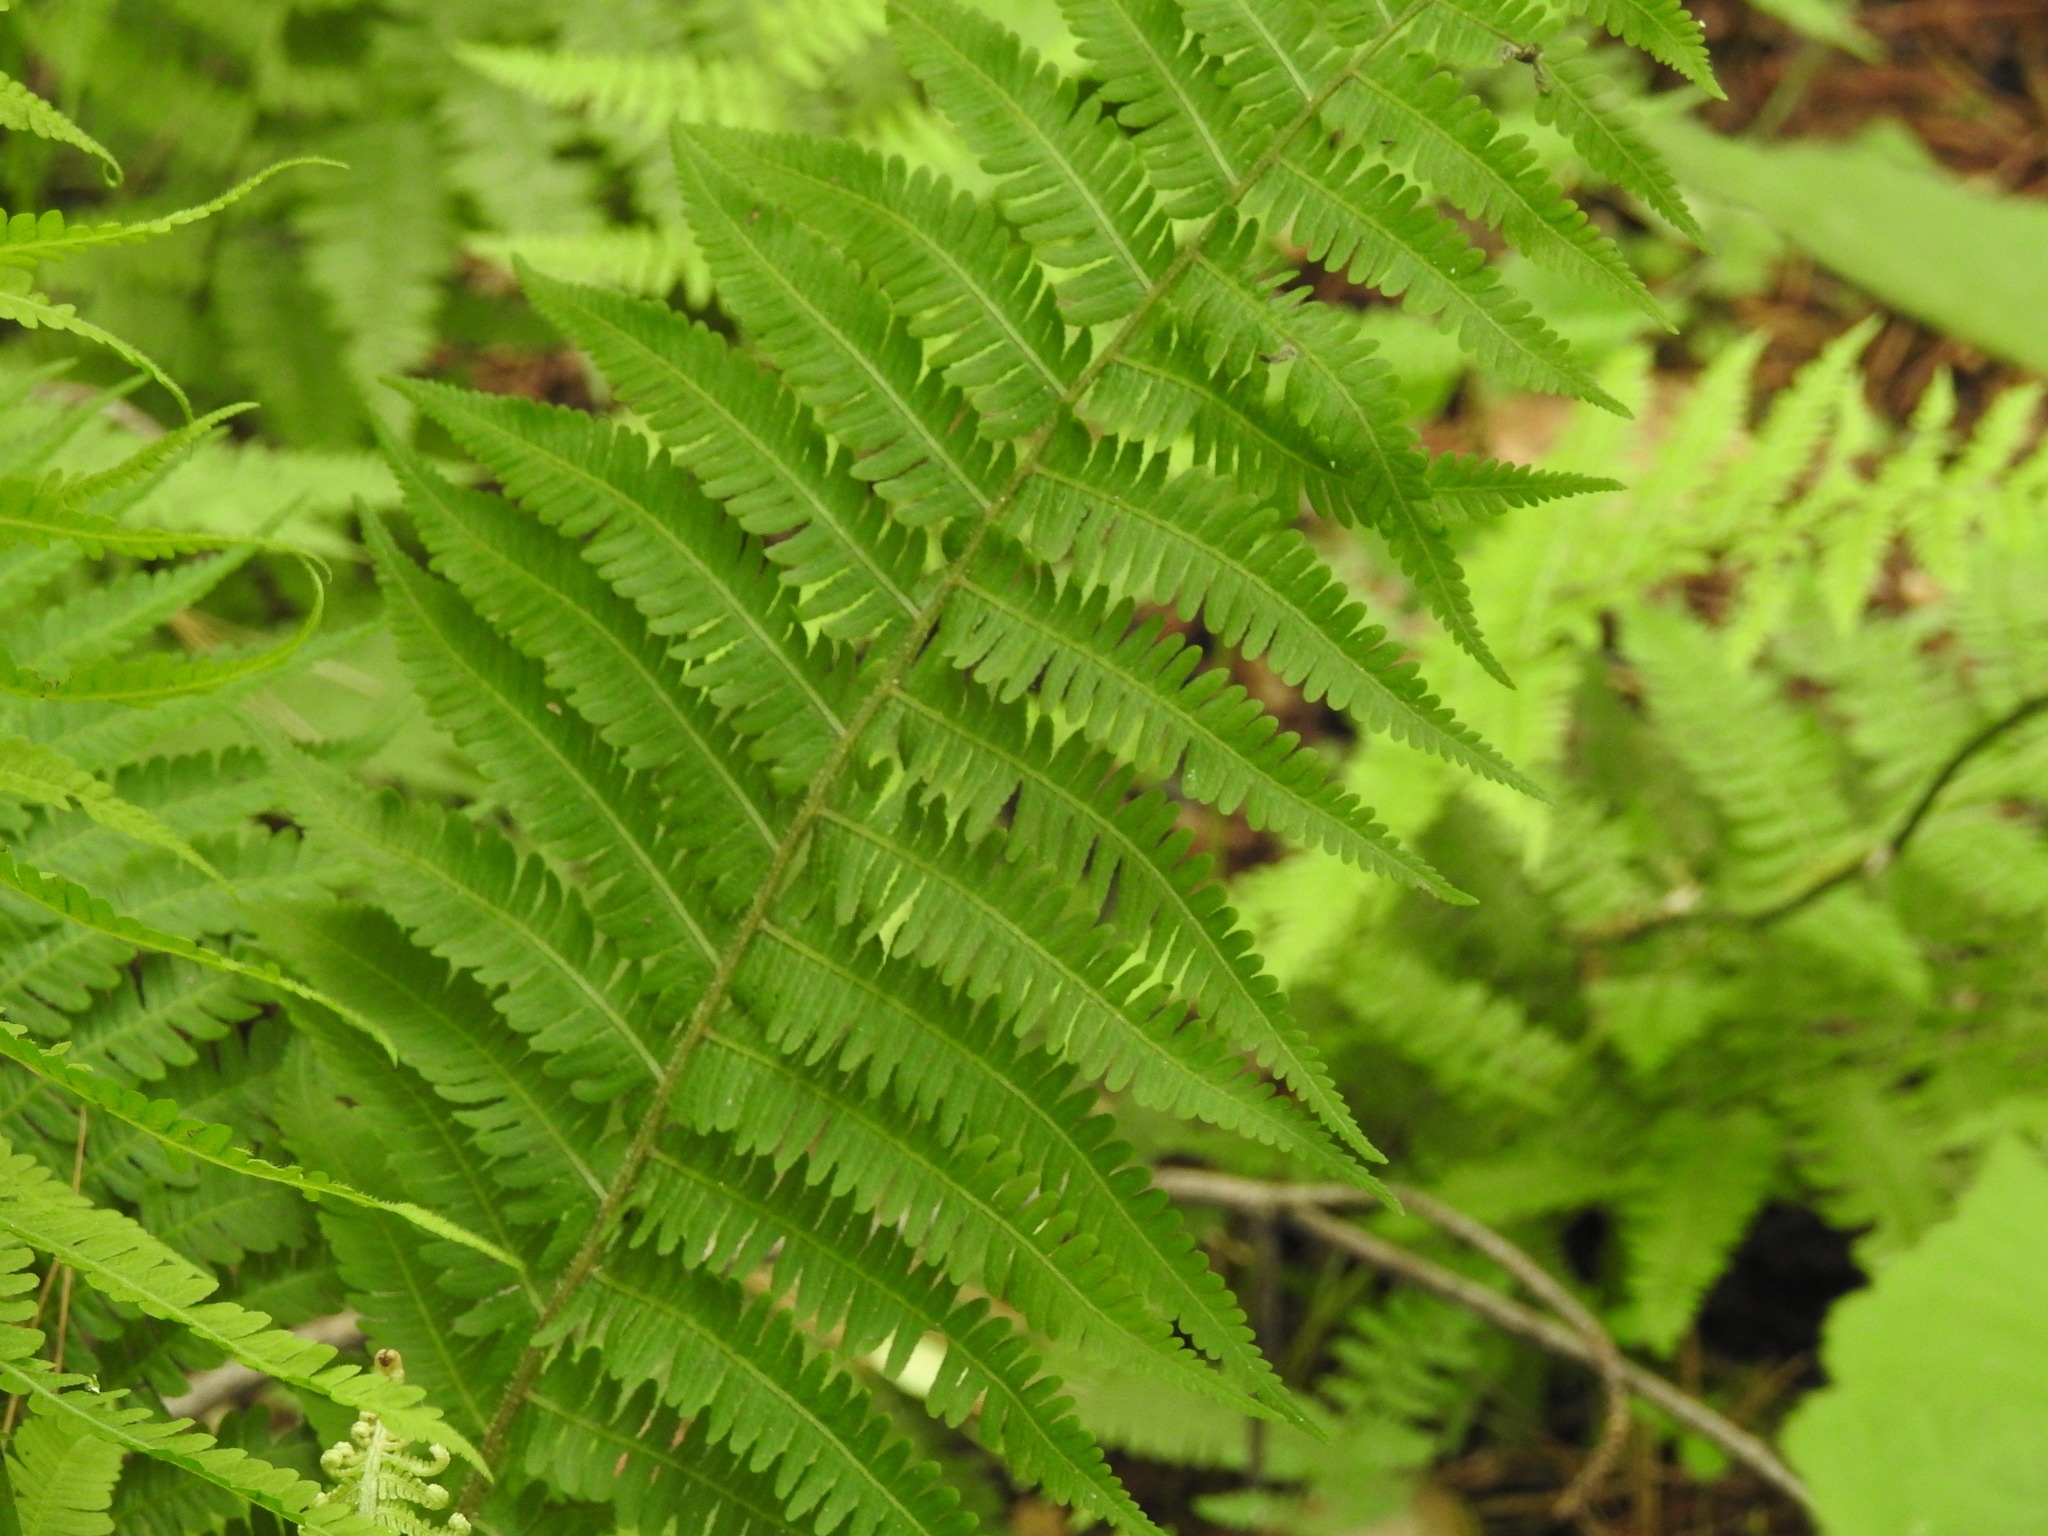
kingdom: Plantae
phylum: Tracheophyta
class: Polypodiopsida
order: Polypodiales
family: Athyriaceae
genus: Deparia
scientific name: Deparia acrostichoides
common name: Silver false spleenwort
